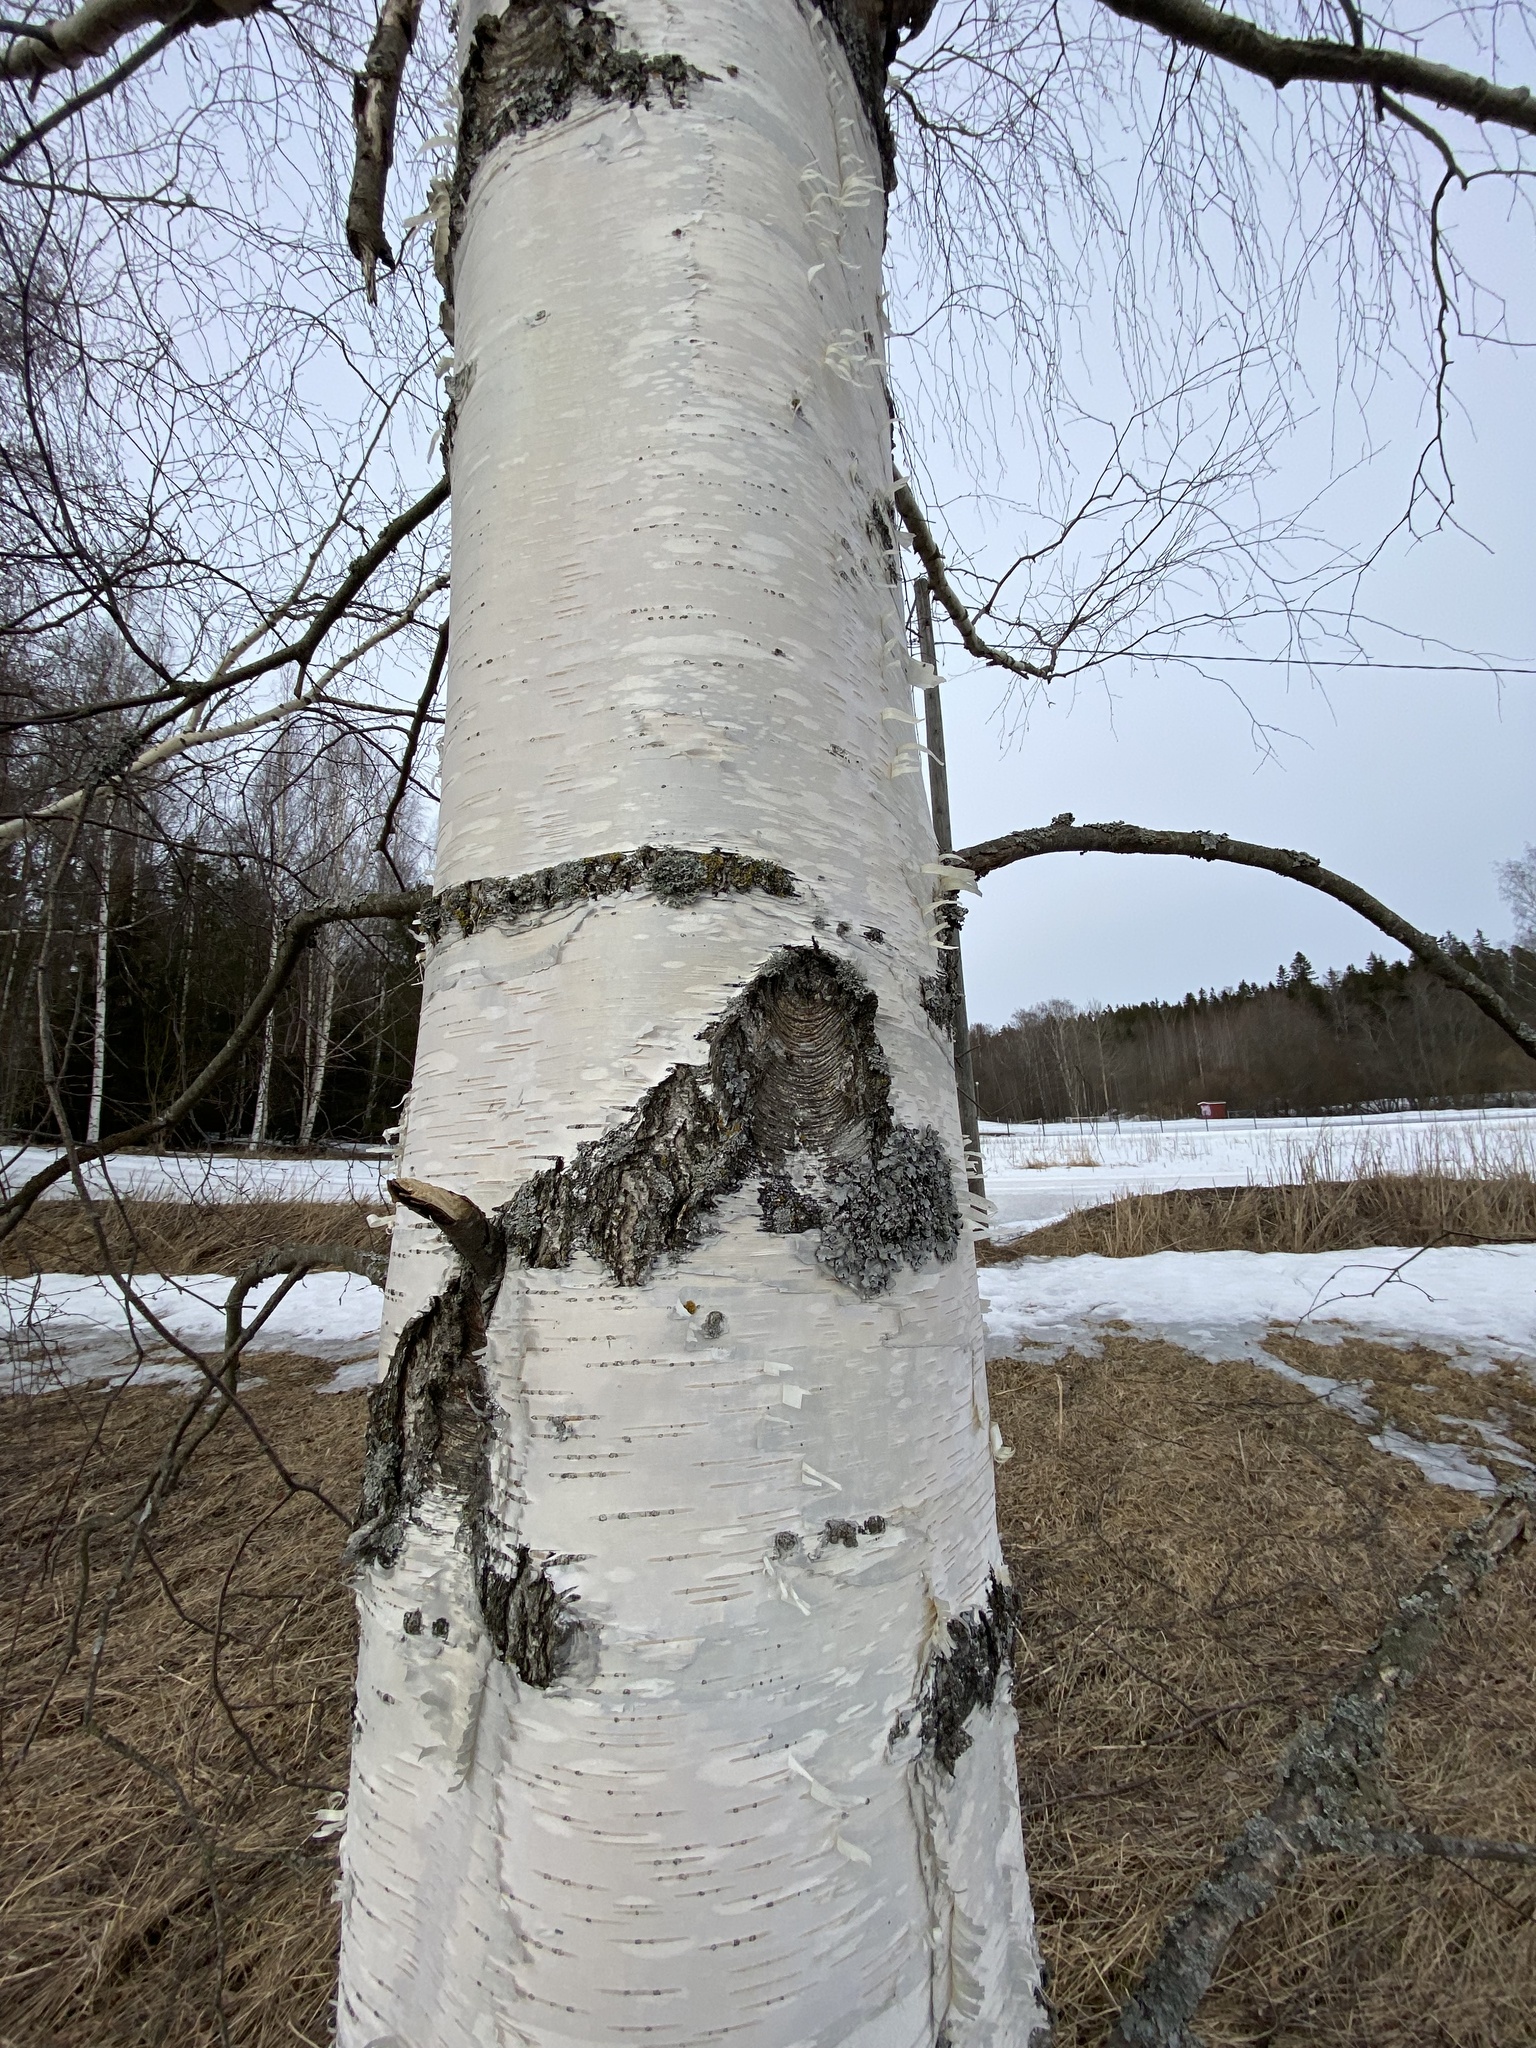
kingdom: Plantae
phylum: Tracheophyta
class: Magnoliopsida
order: Fagales
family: Betulaceae
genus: Betula
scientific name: Betula pendula
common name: Silver birch
